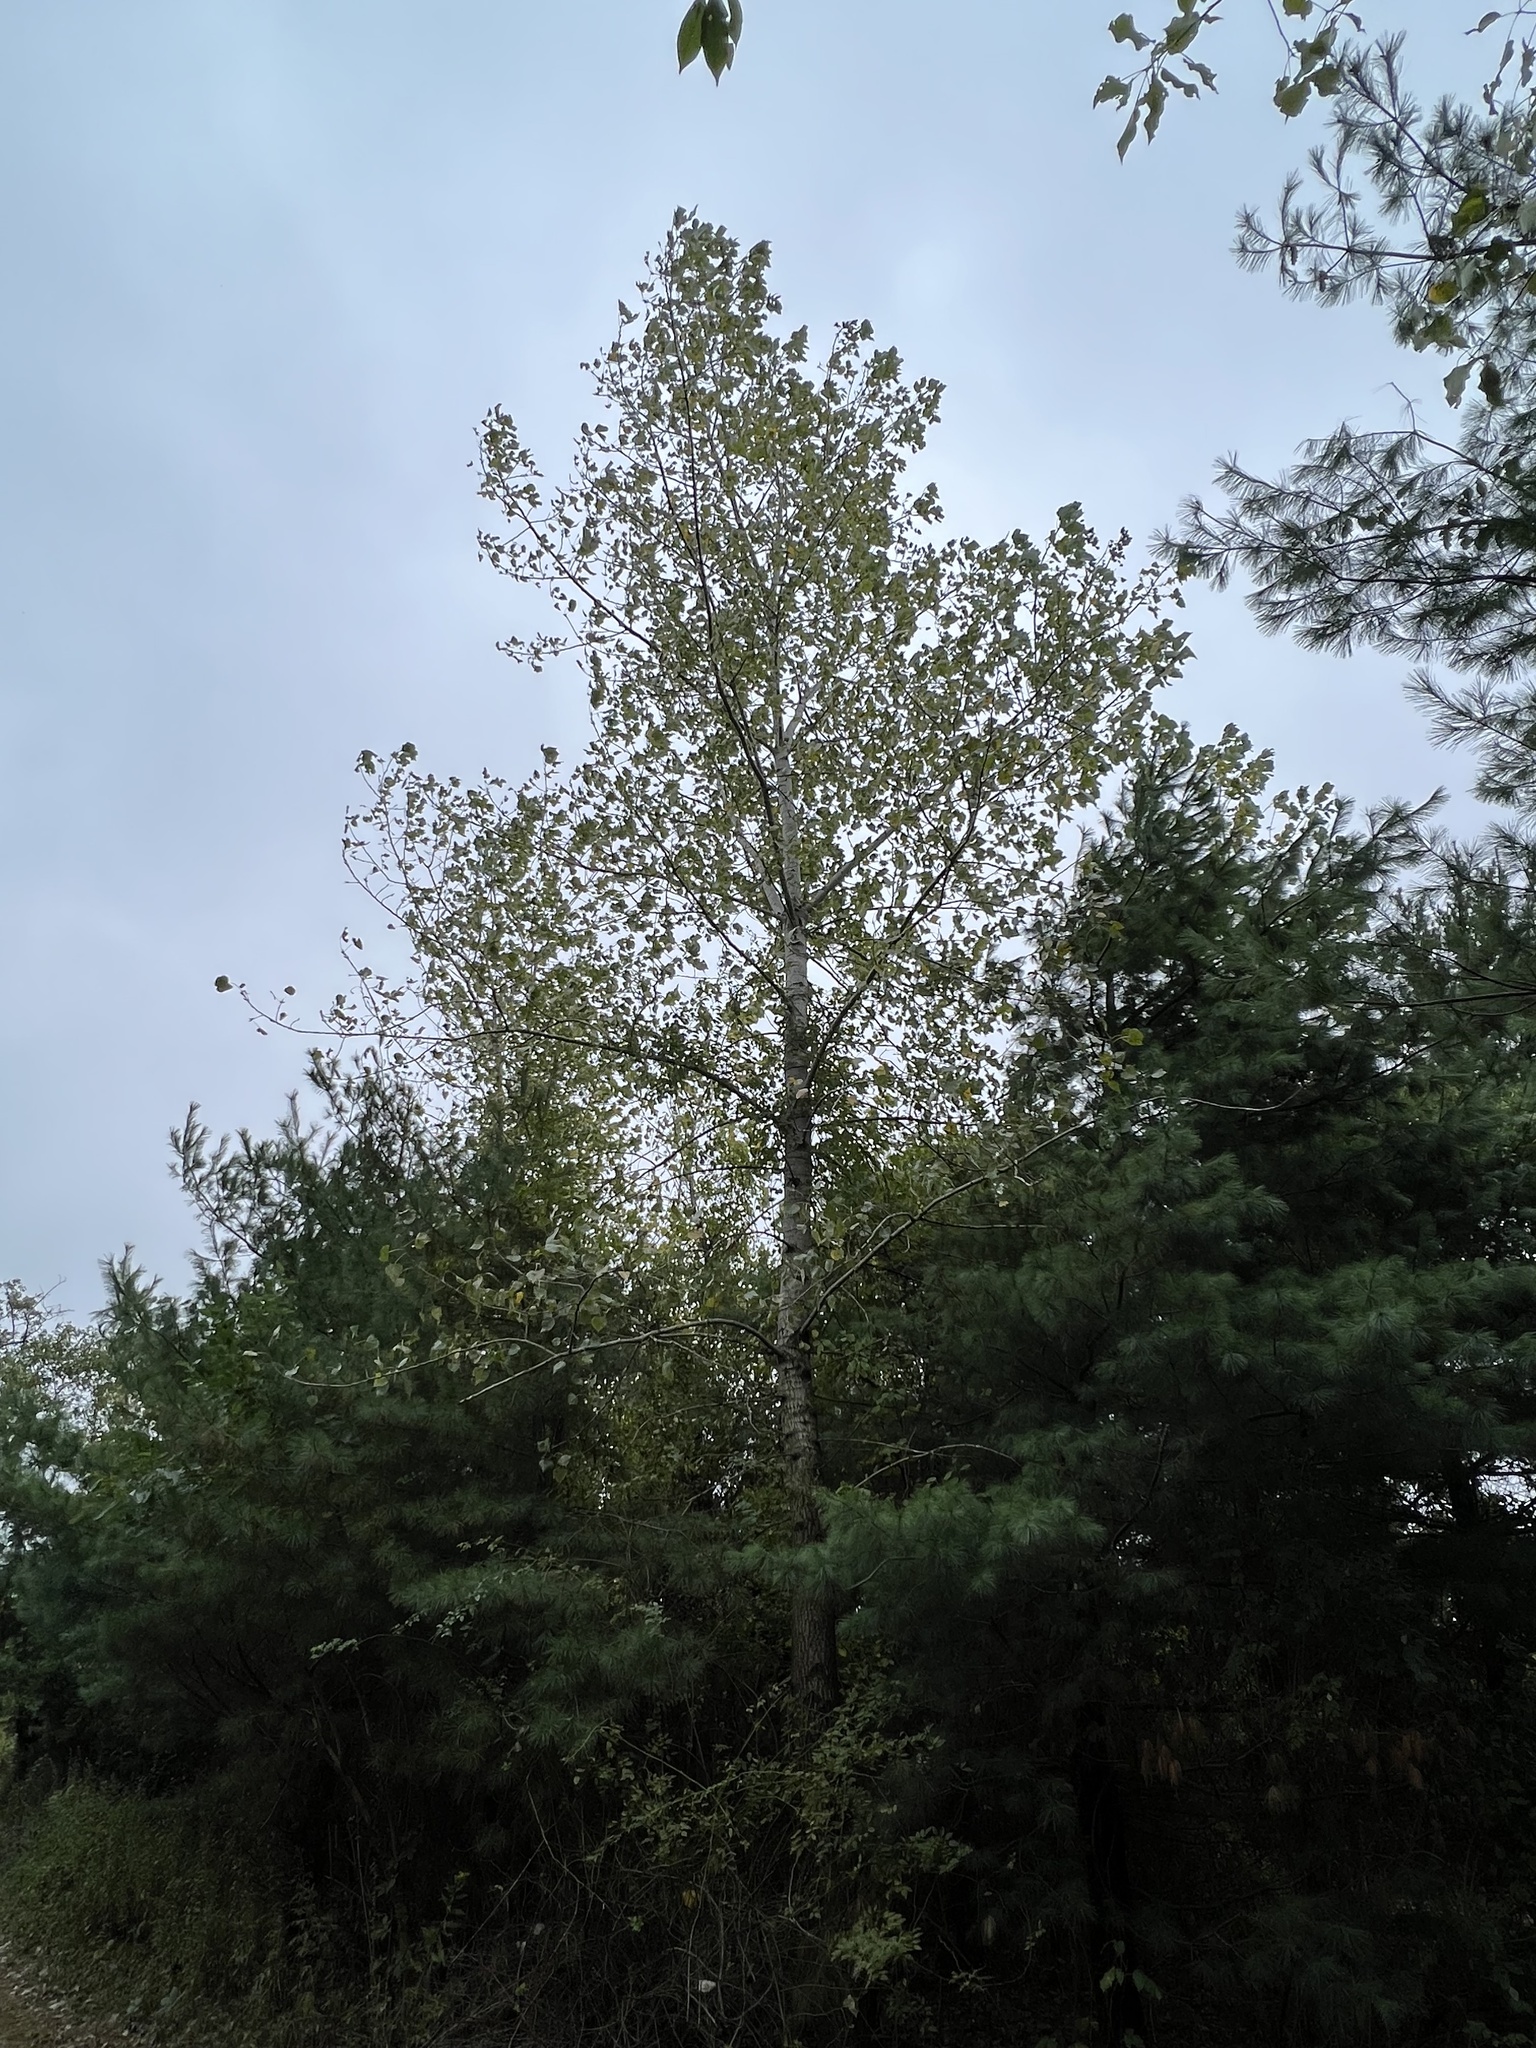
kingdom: Plantae
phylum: Tracheophyta
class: Magnoliopsida
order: Malpighiales
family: Salicaceae
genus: Populus
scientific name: Populus tremuloides
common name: Quaking aspen
